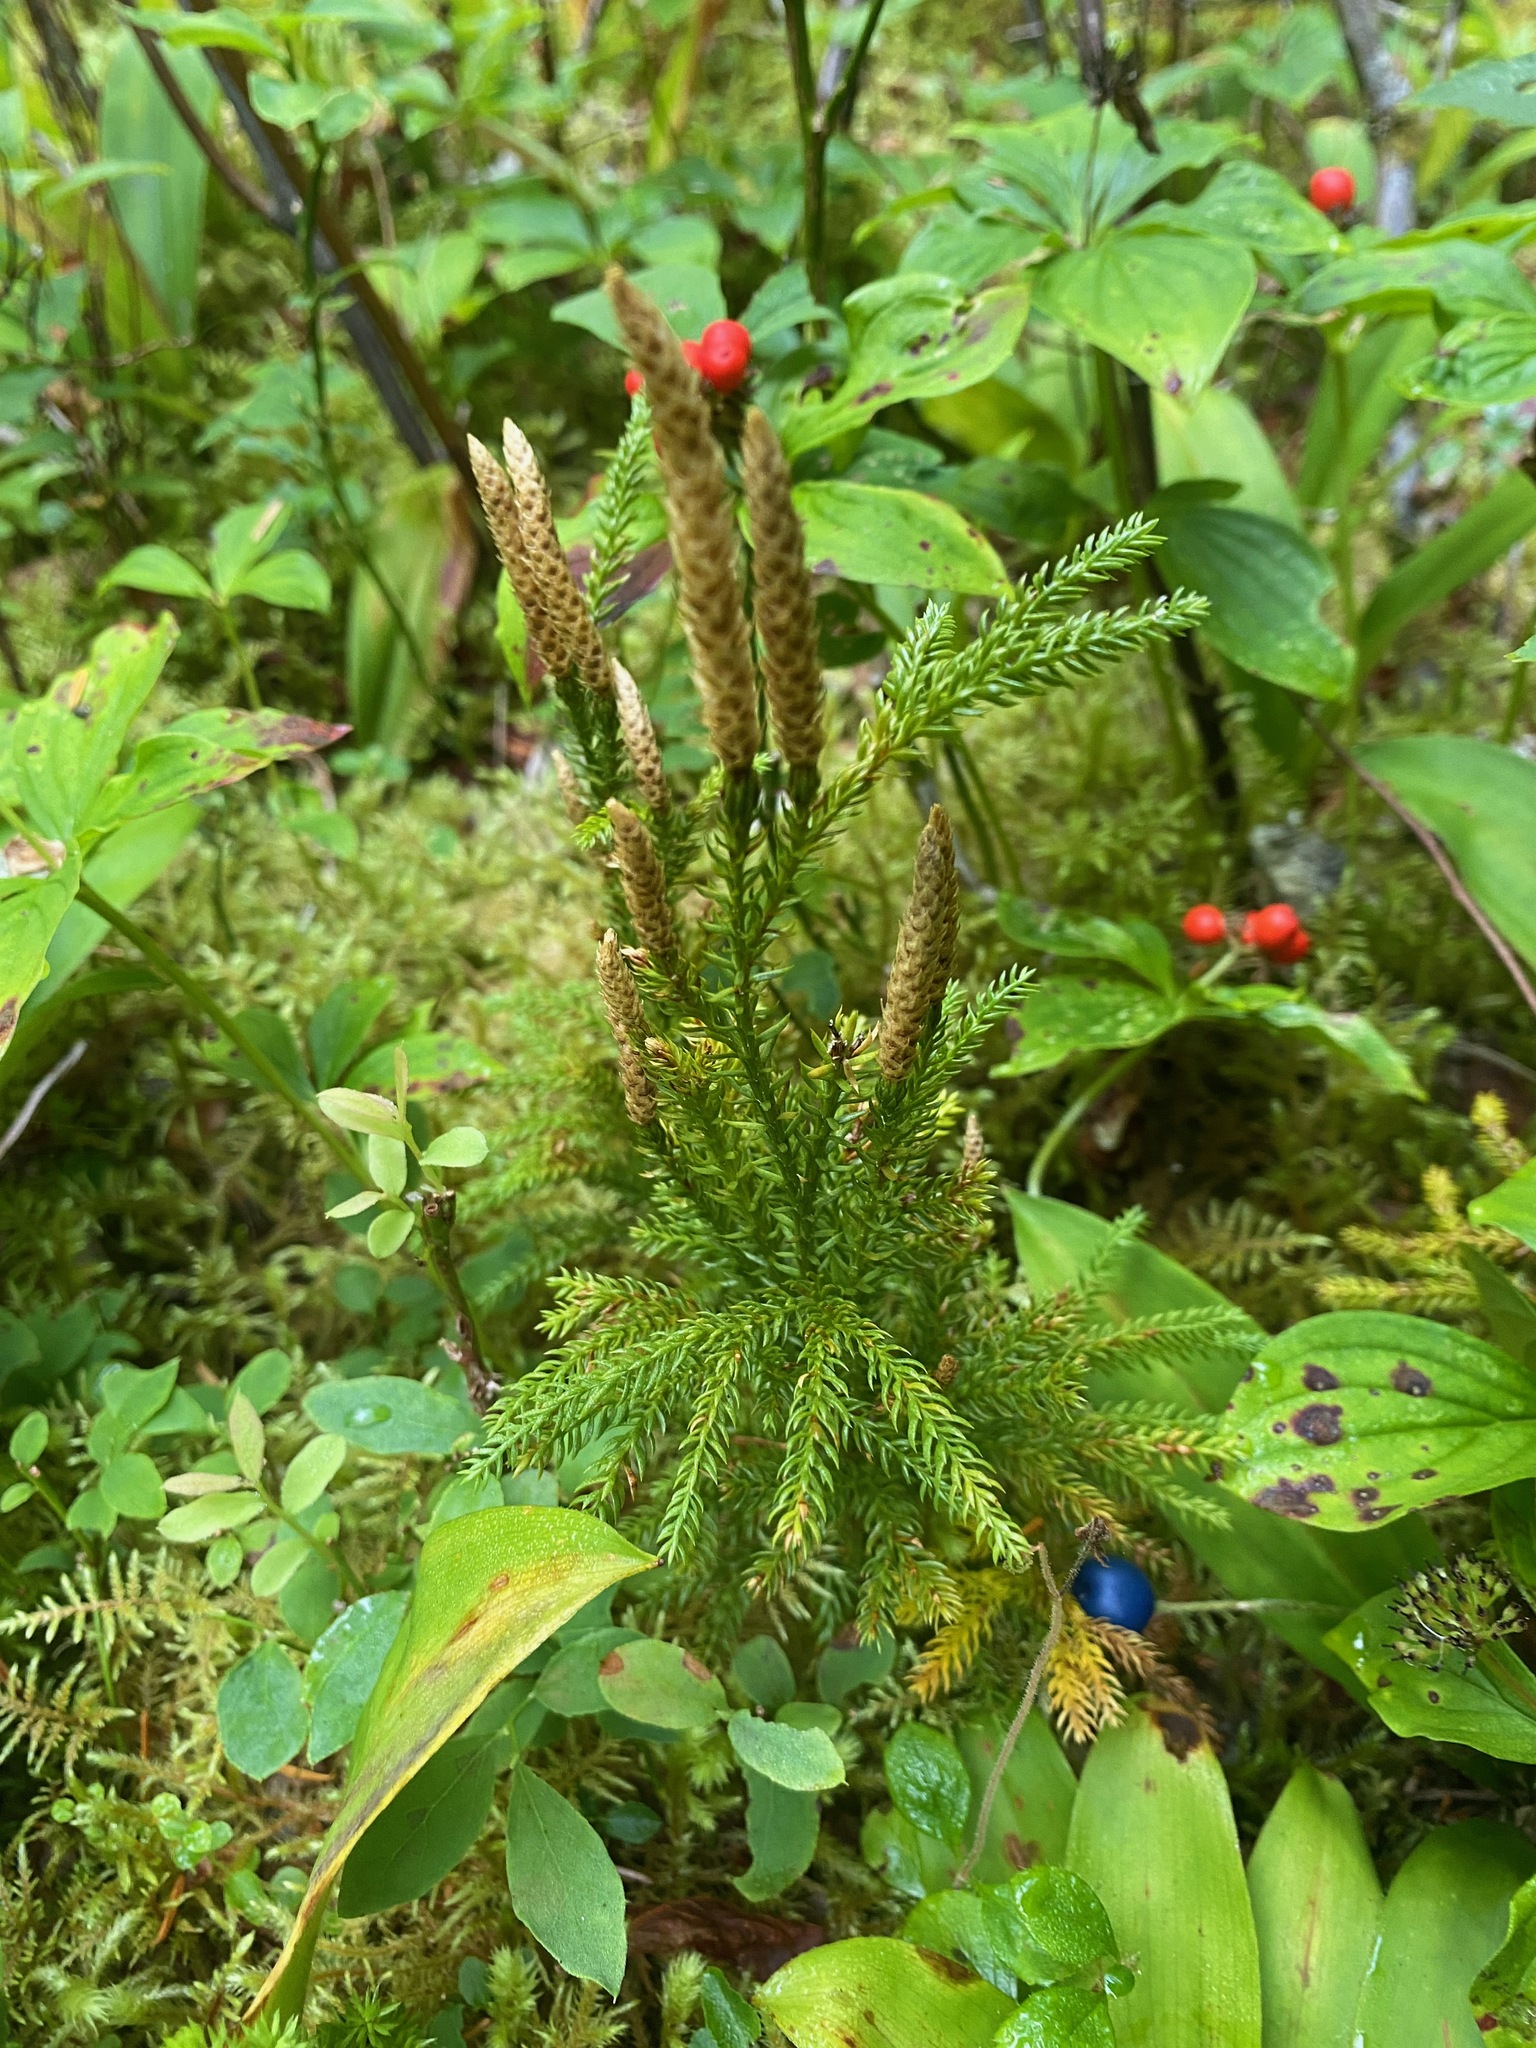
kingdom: Plantae
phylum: Tracheophyta
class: Lycopodiopsida
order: Lycopodiales
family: Lycopodiaceae
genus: Dendrolycopodium
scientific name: Dendrolycopodium dendroideum
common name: Northern tree-clubmoss
